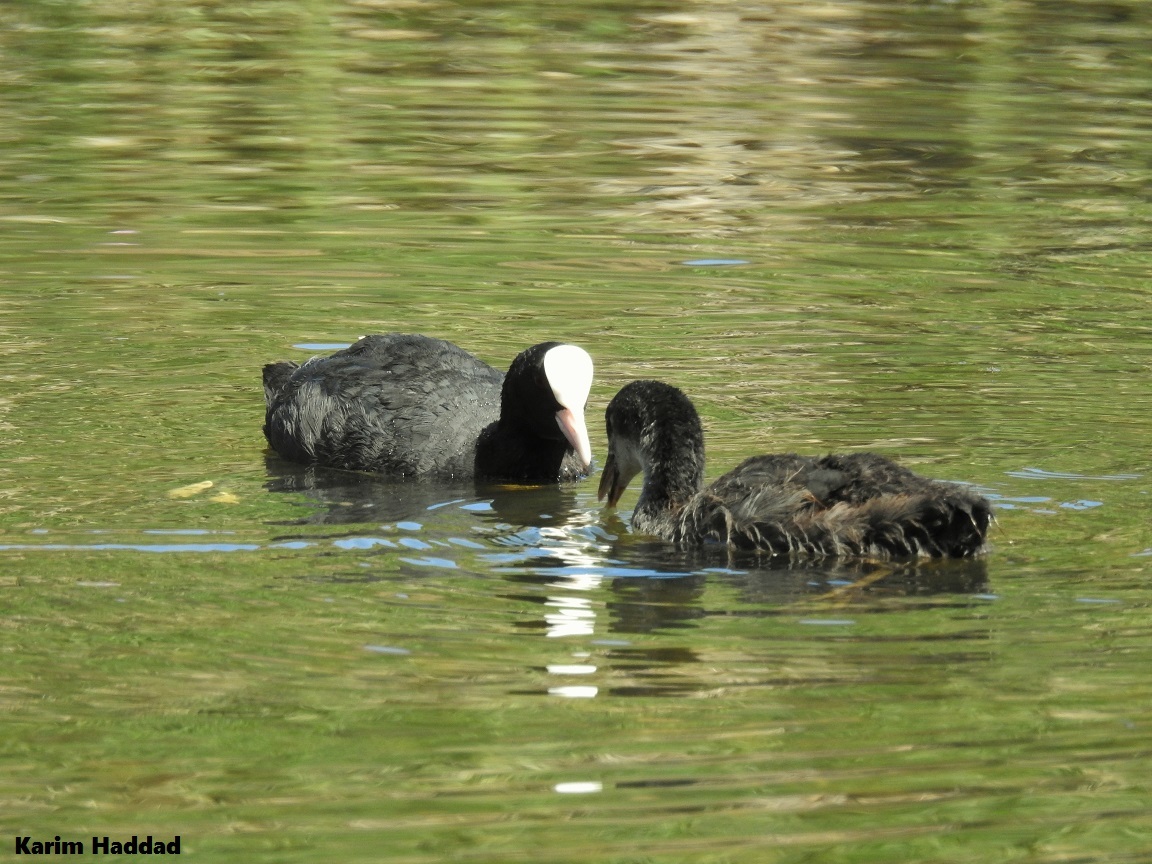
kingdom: Animalia
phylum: Chordata
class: Aves
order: Gruiformes
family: Rallidae
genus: Fulica
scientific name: Fulica atra
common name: Eurasian coot
